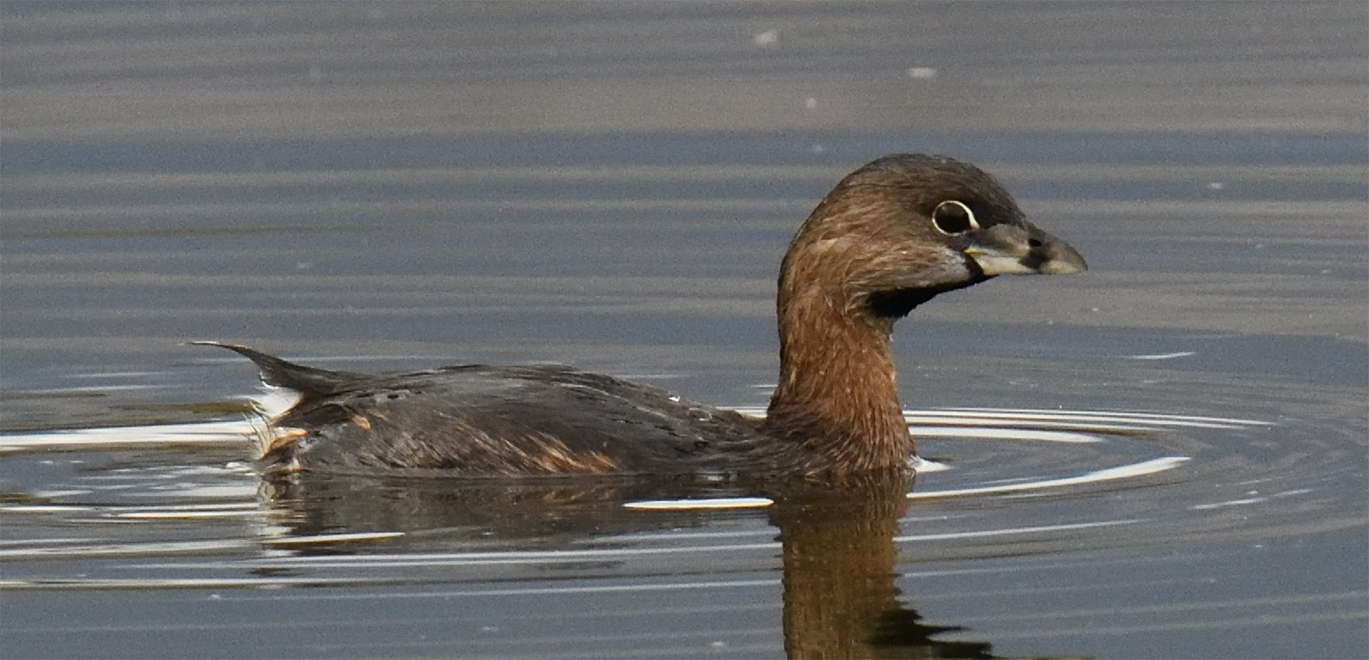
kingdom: Animalia
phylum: Chordata
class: Aves
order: Podicipediformes
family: Podicipedidae
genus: Podilymbus
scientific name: Podilymbus podiceps
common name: Pied-billed grebe
